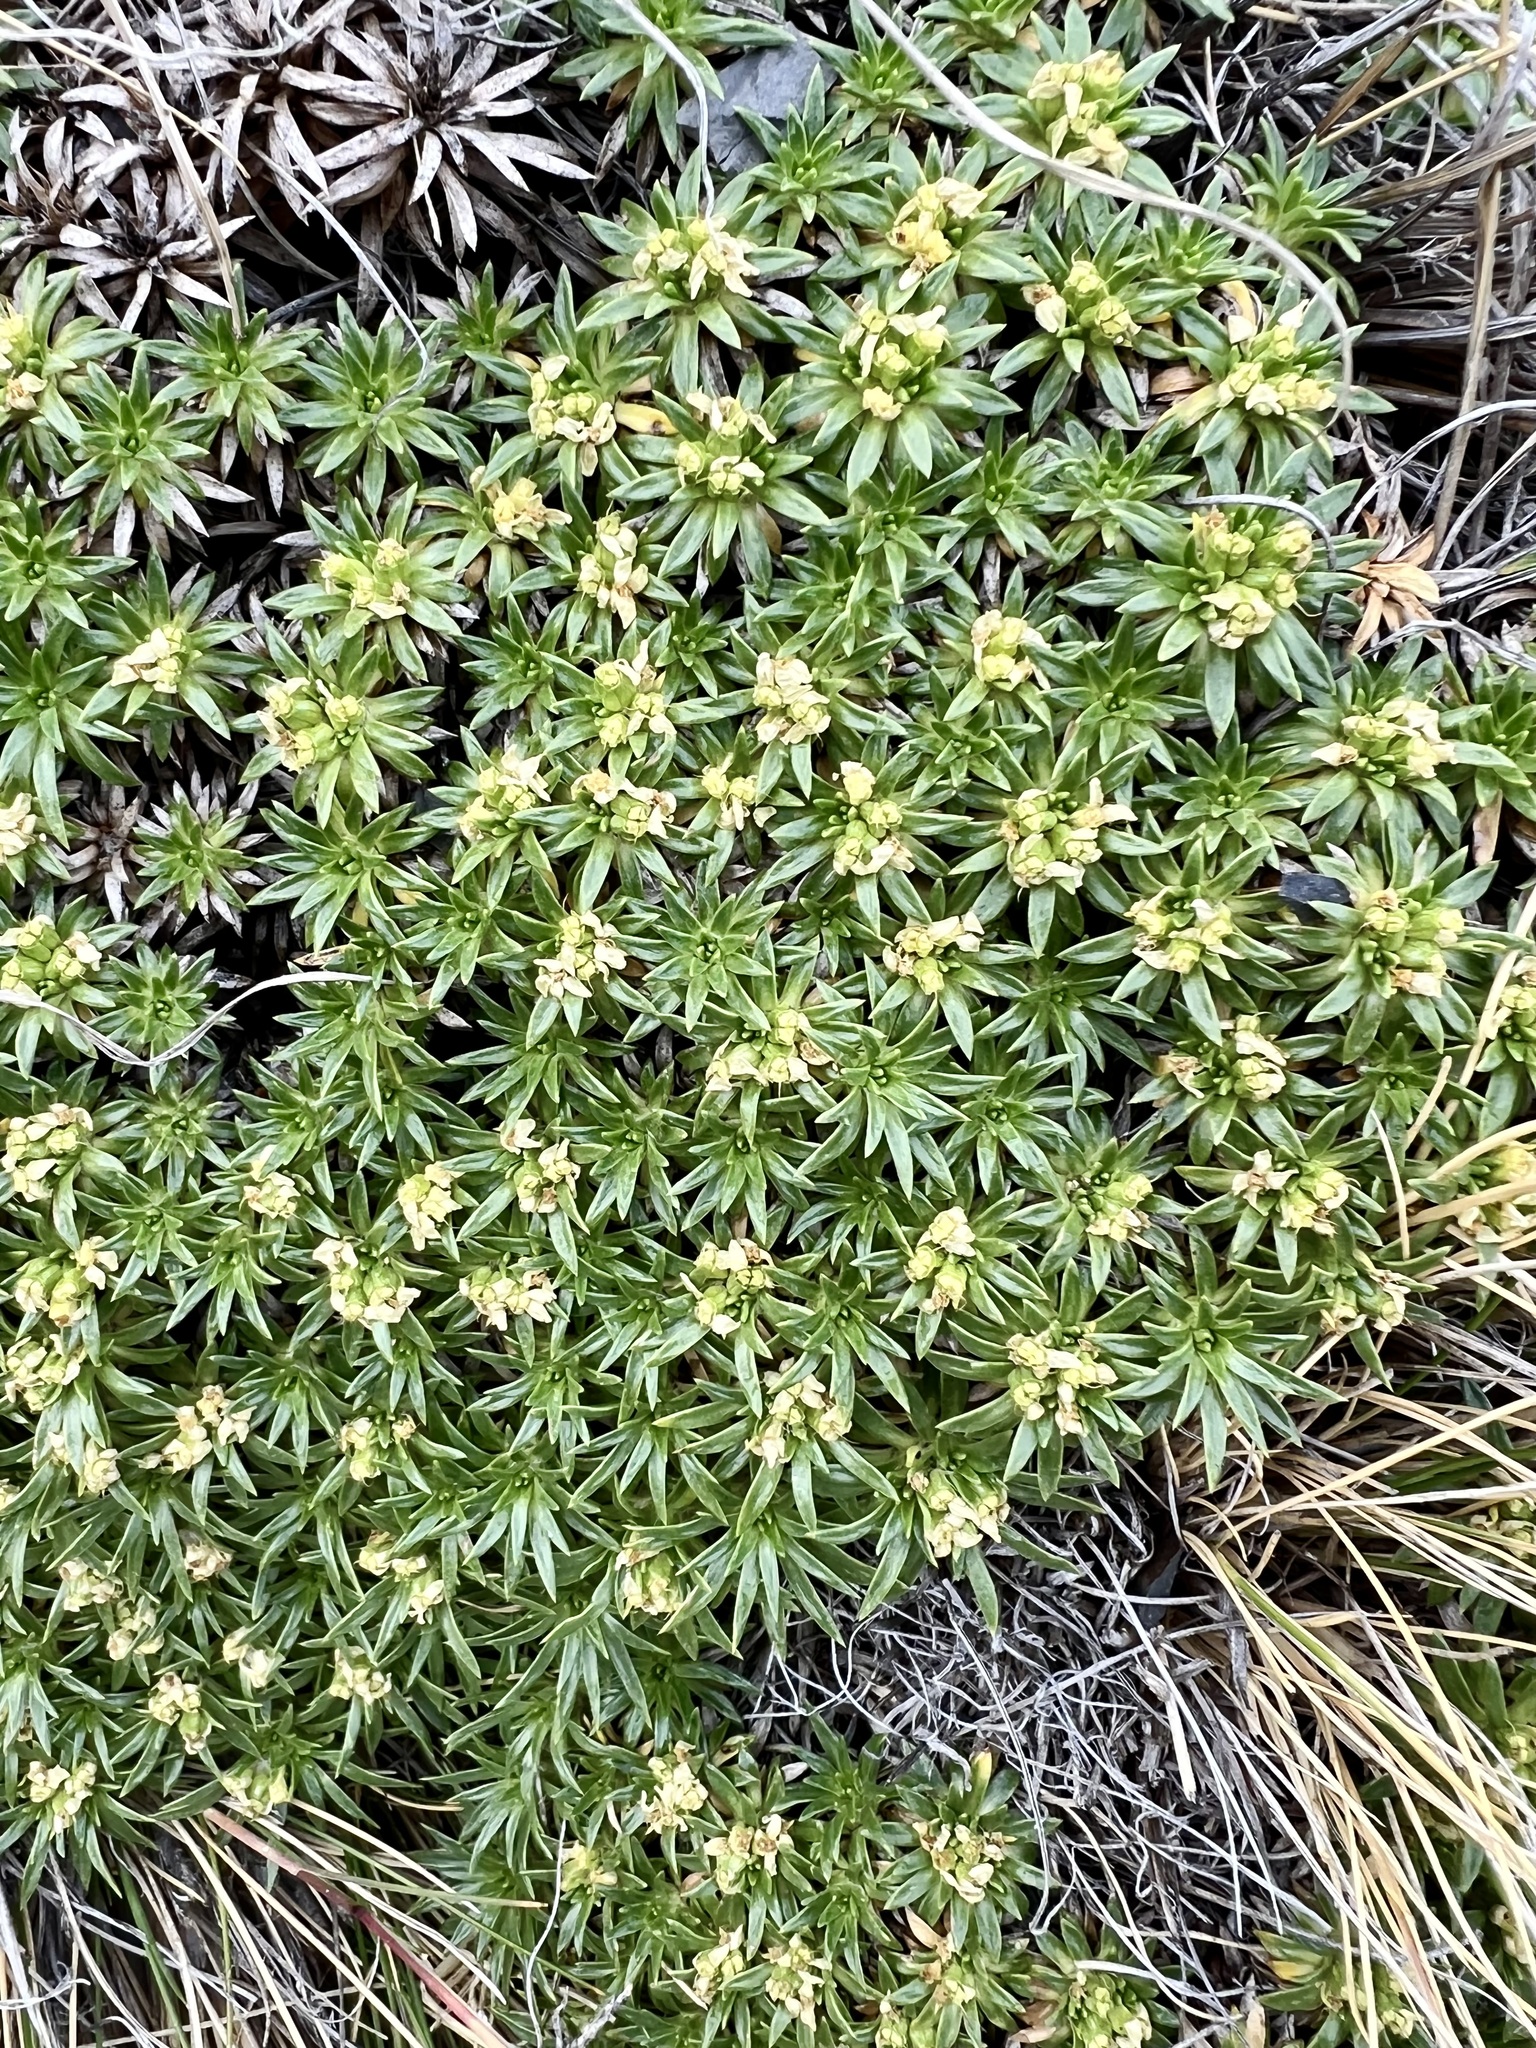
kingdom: Plantae
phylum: Tracheophyta
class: Magnoliopsida
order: Apiales
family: Apiaceae
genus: Azorella
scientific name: Azorella monantha
